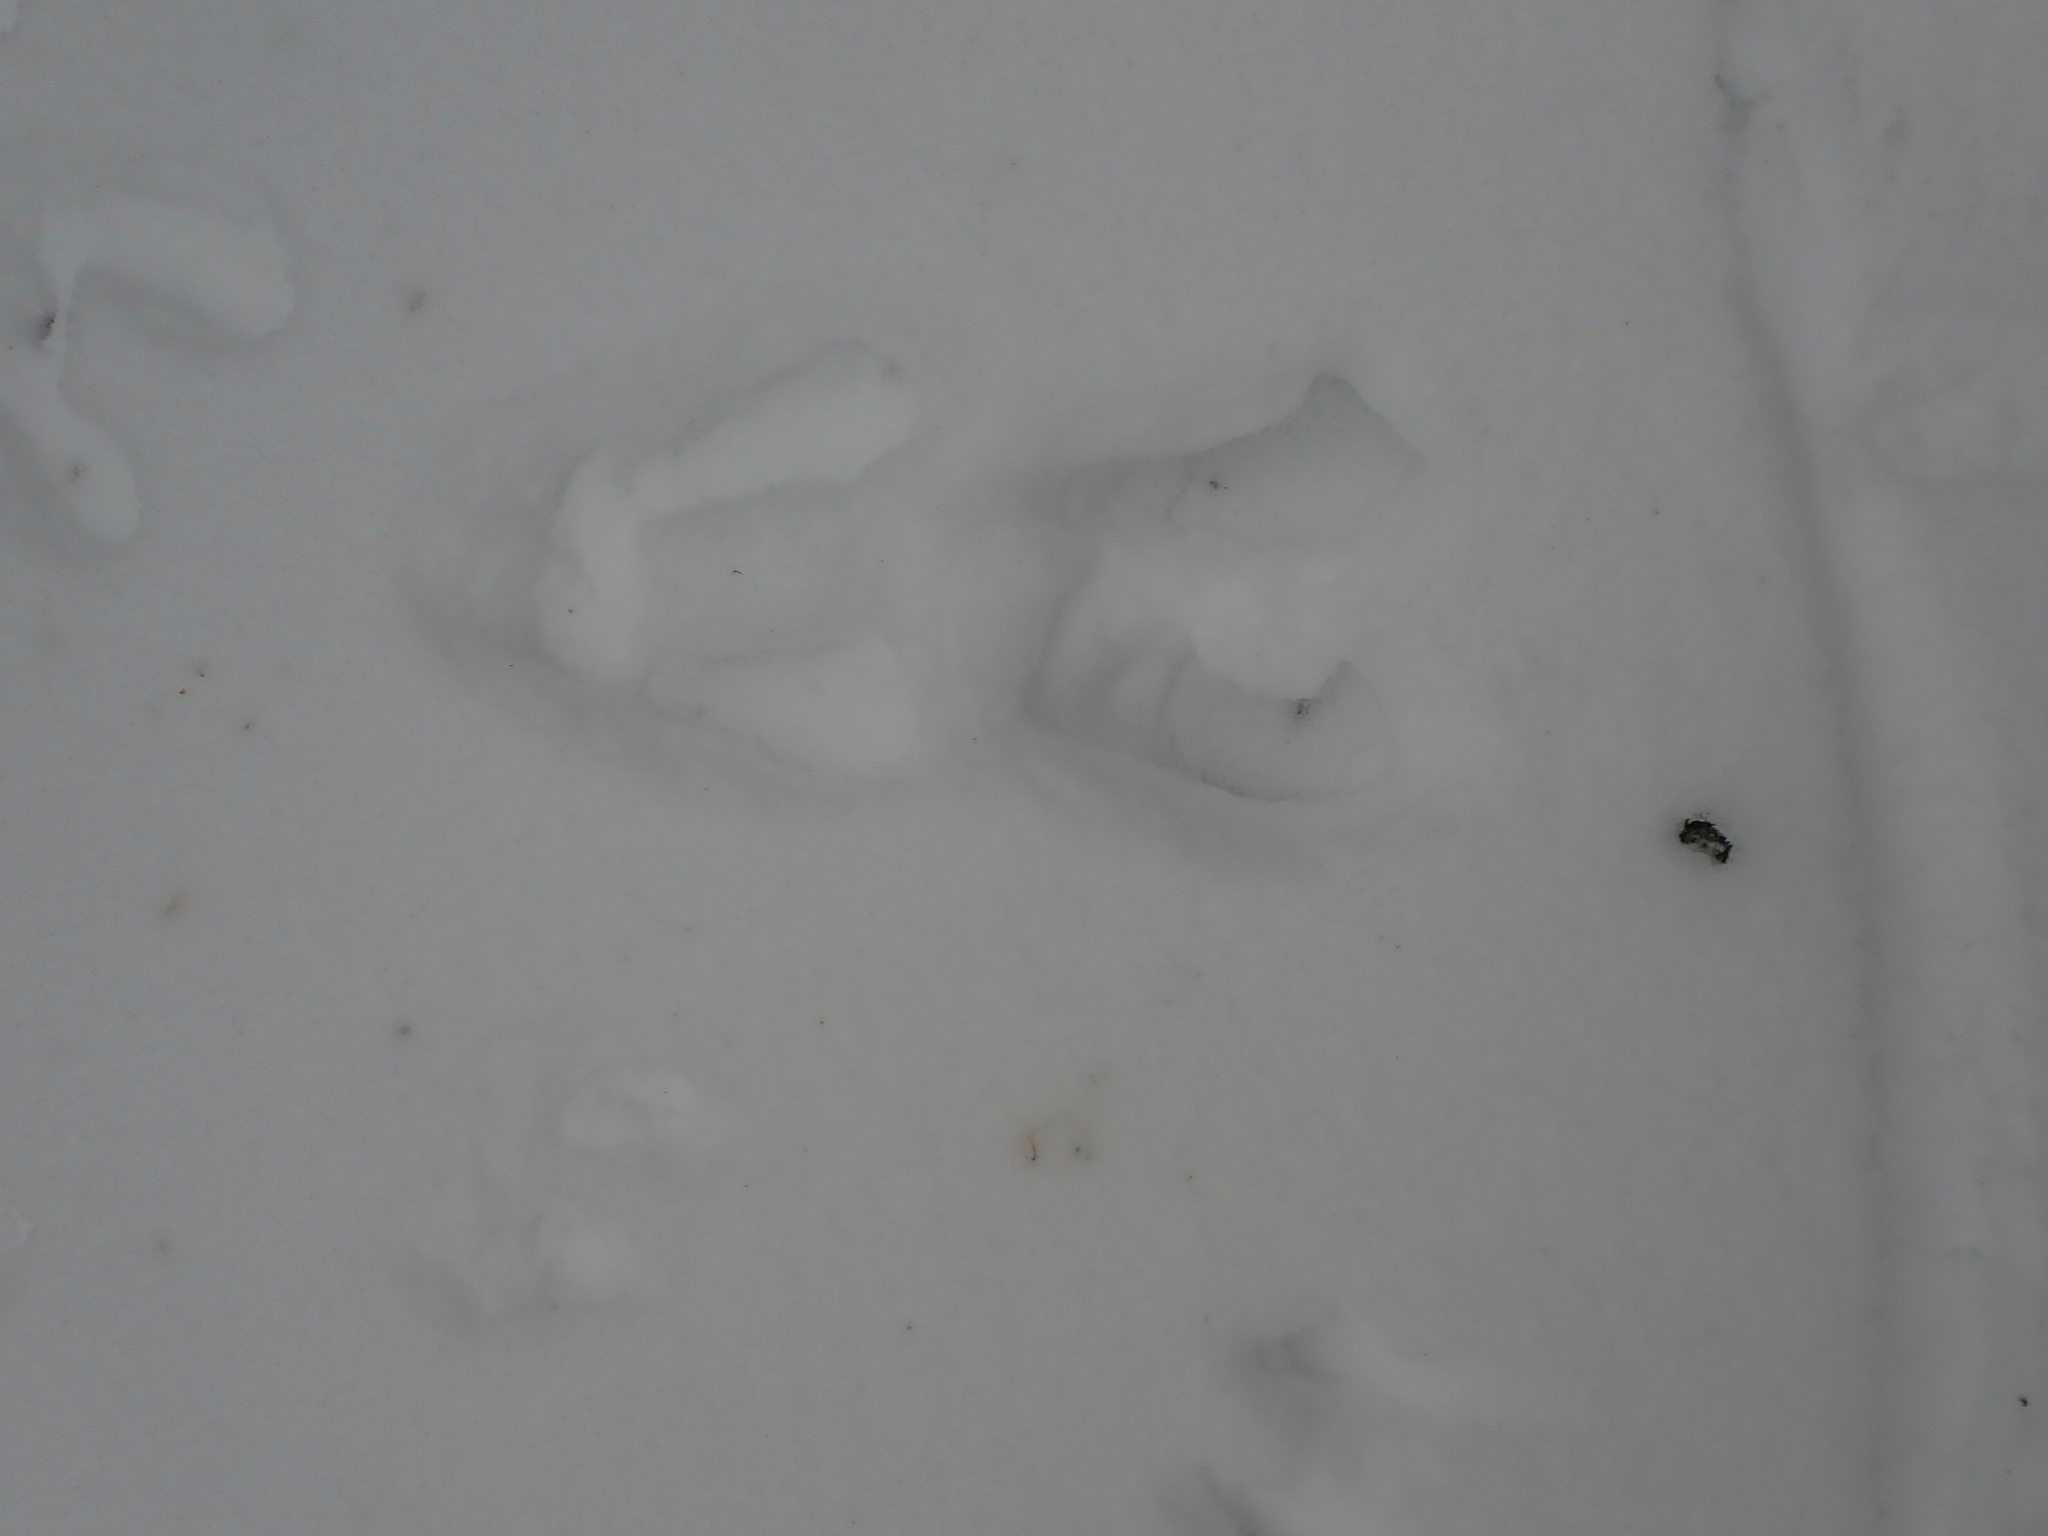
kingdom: Animalia
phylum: Chordata
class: Mammalia
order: Lagomorpha
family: Leporidae
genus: Lepus
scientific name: Lepus americanus
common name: Snowshoe hare
